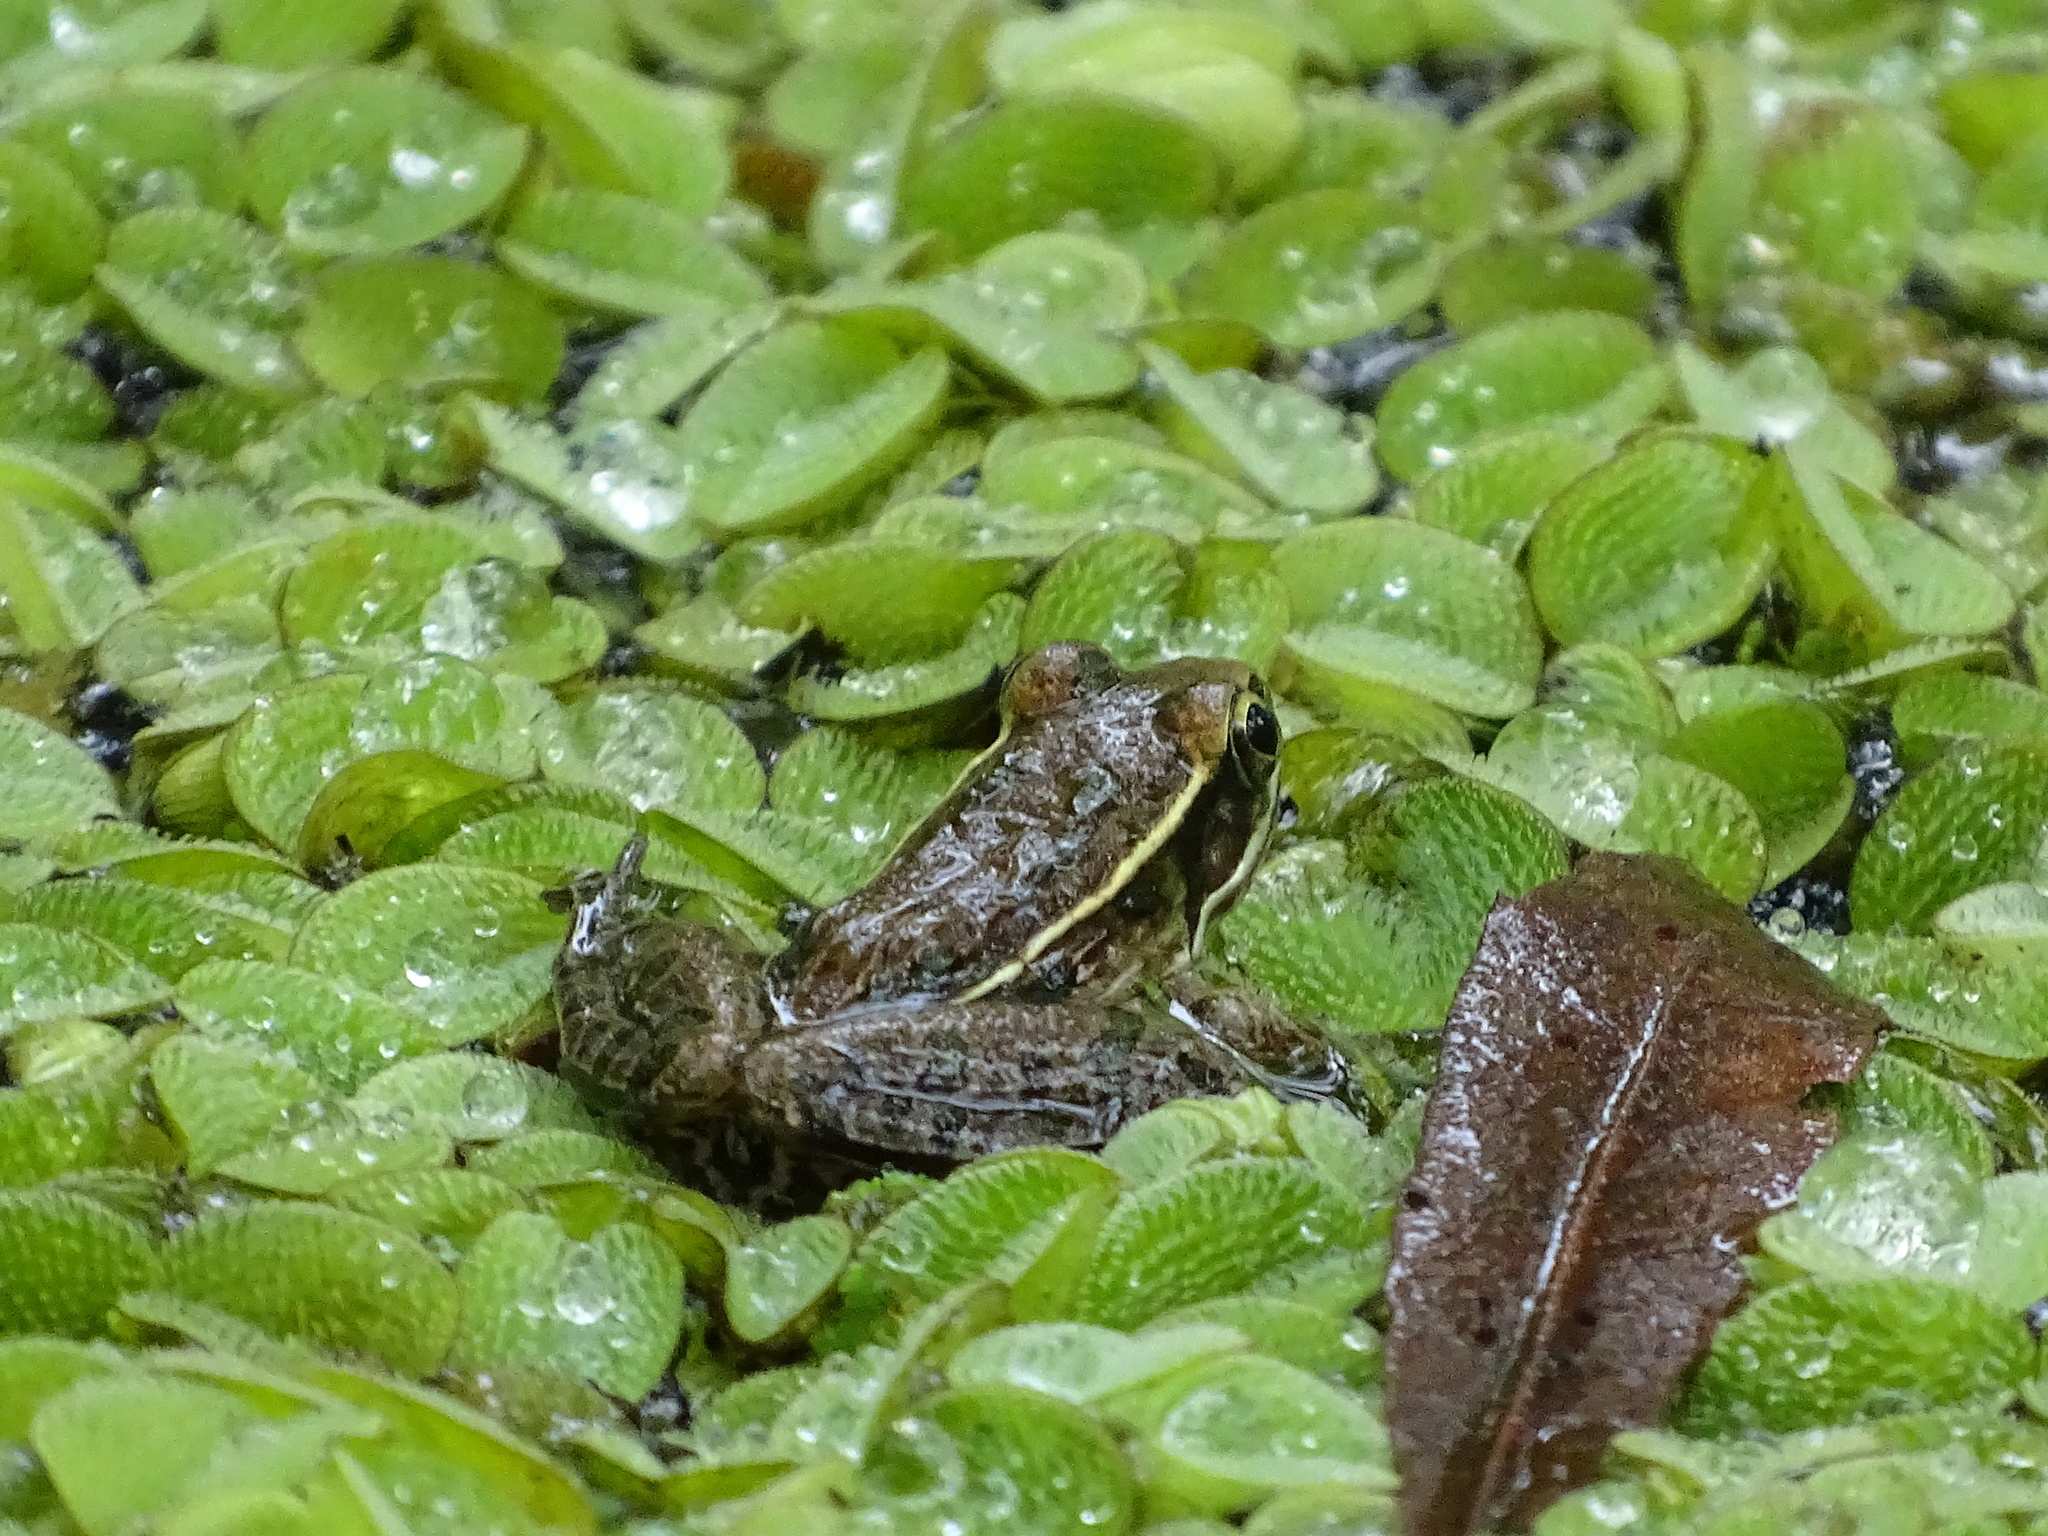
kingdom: Animalia
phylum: Chordata
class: Amphibia
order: Anura
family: Ranidae
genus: Lithobates
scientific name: Lithobates sphenocephalus
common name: Southern leopard frog
